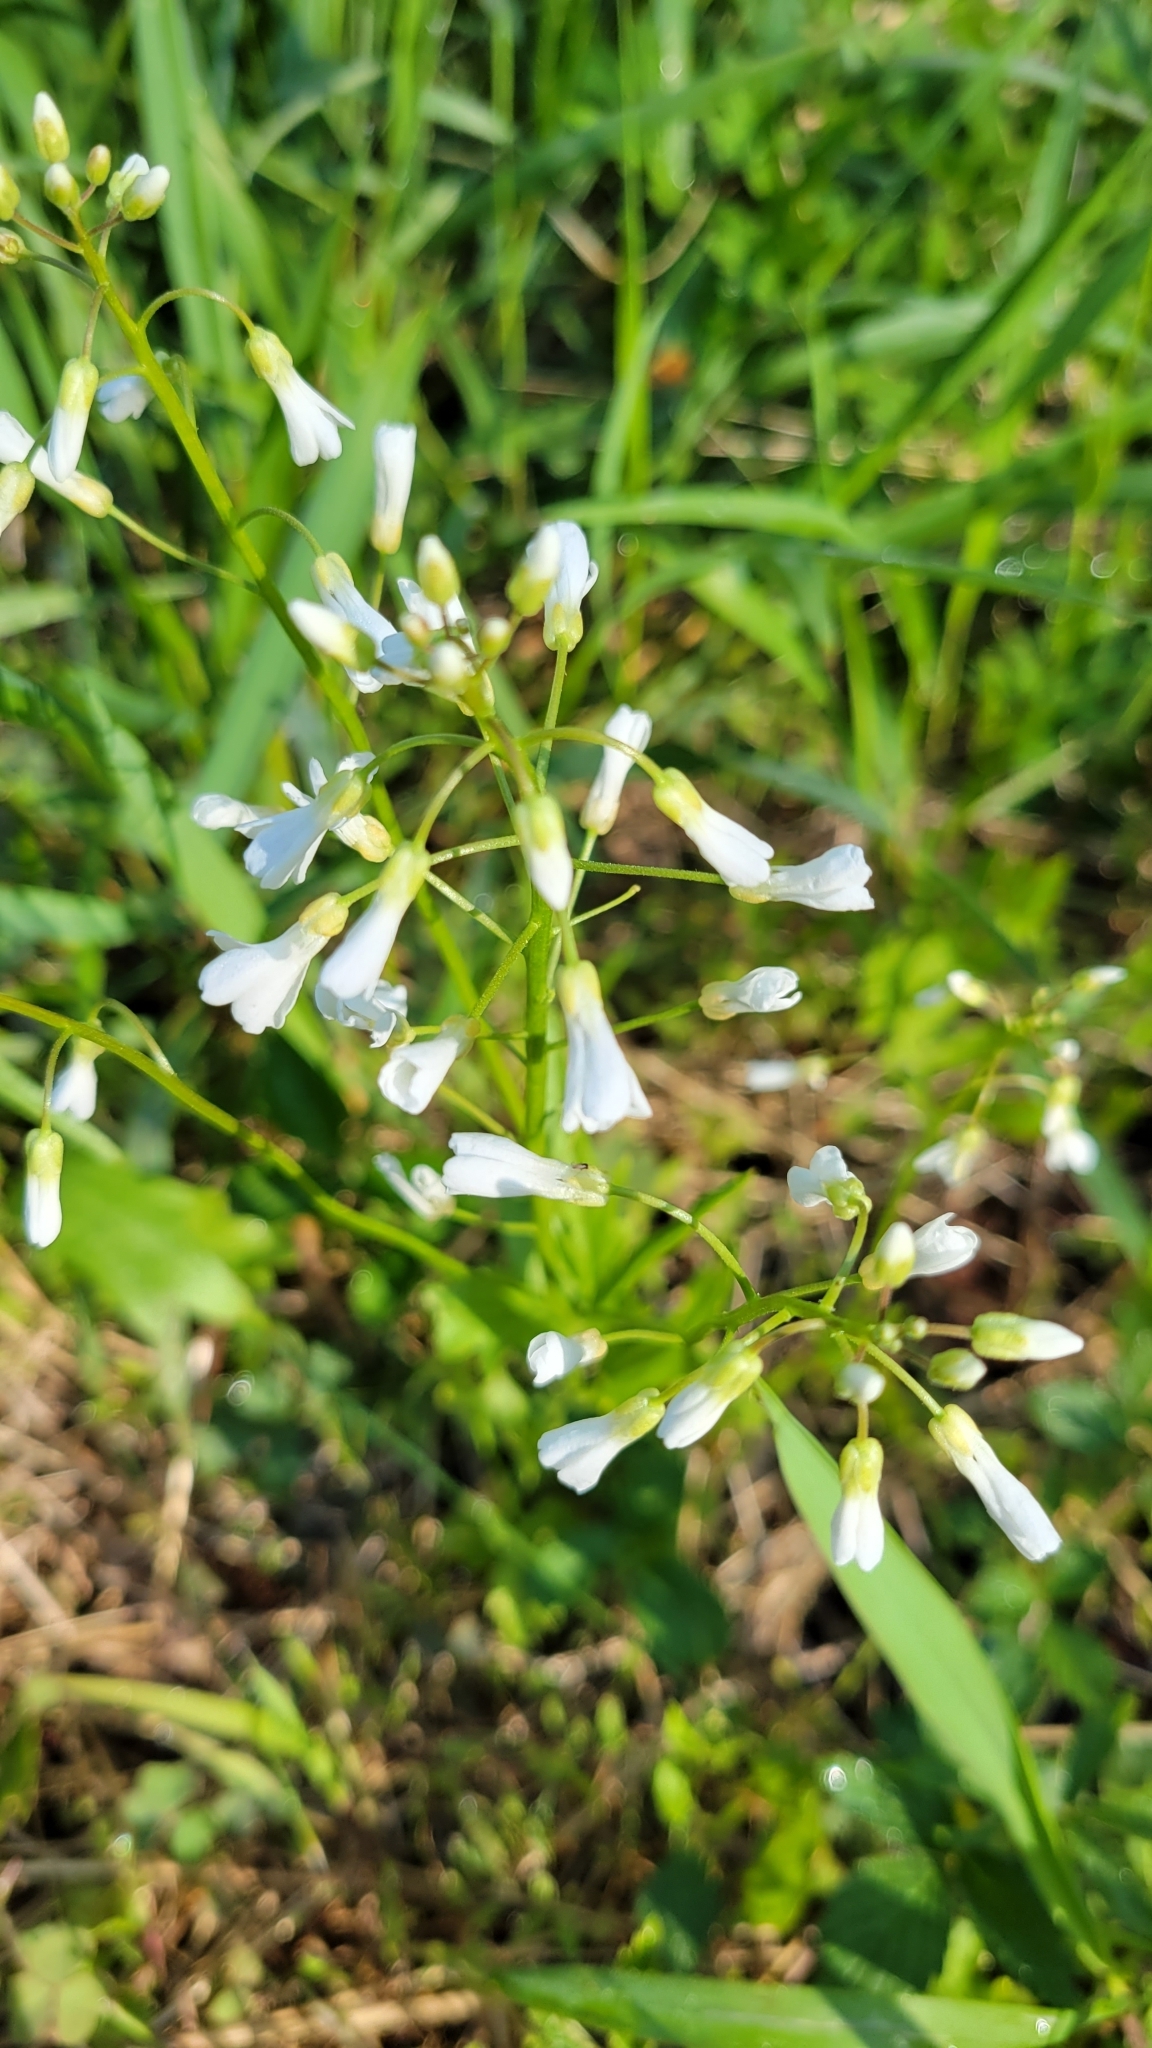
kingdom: Plantae
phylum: Tracheophyta
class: Magnoliopsida
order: Brassicales
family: Brassicaceae
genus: Cardamine
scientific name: Cardamine bulbosa
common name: Spring cress
